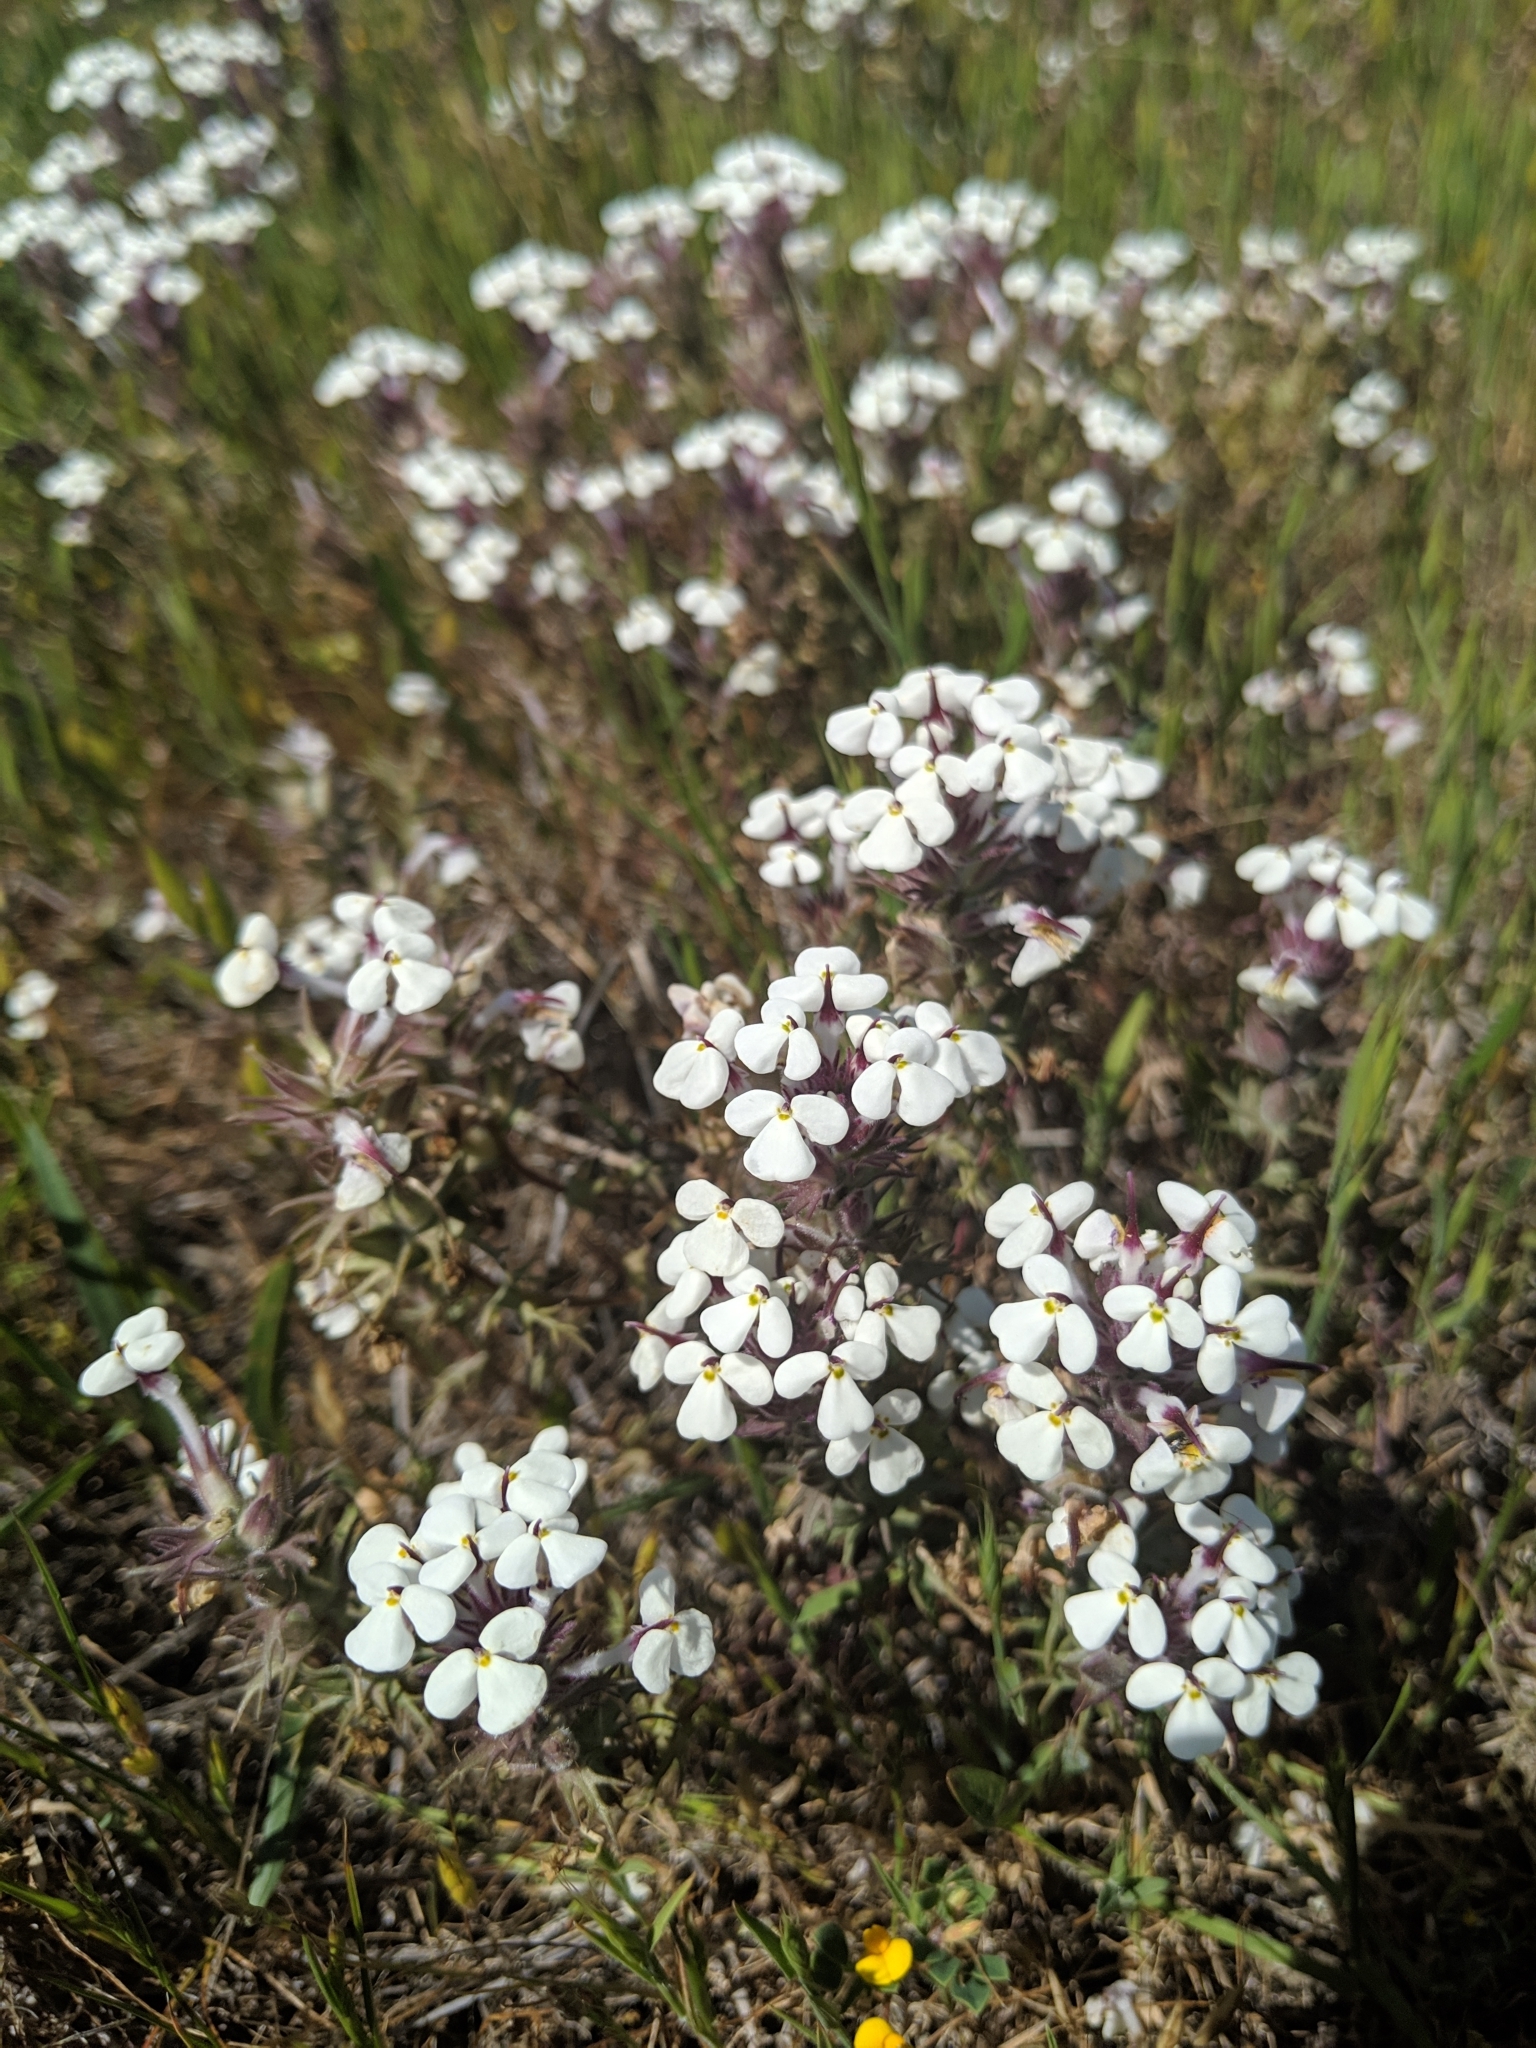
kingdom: Plantae
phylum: Tracheophyta
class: Magnoliopsida
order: Lamiales
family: Orobanchaceae
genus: Triphysaria
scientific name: Triphysaria eriantha
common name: Johnny-tuck
